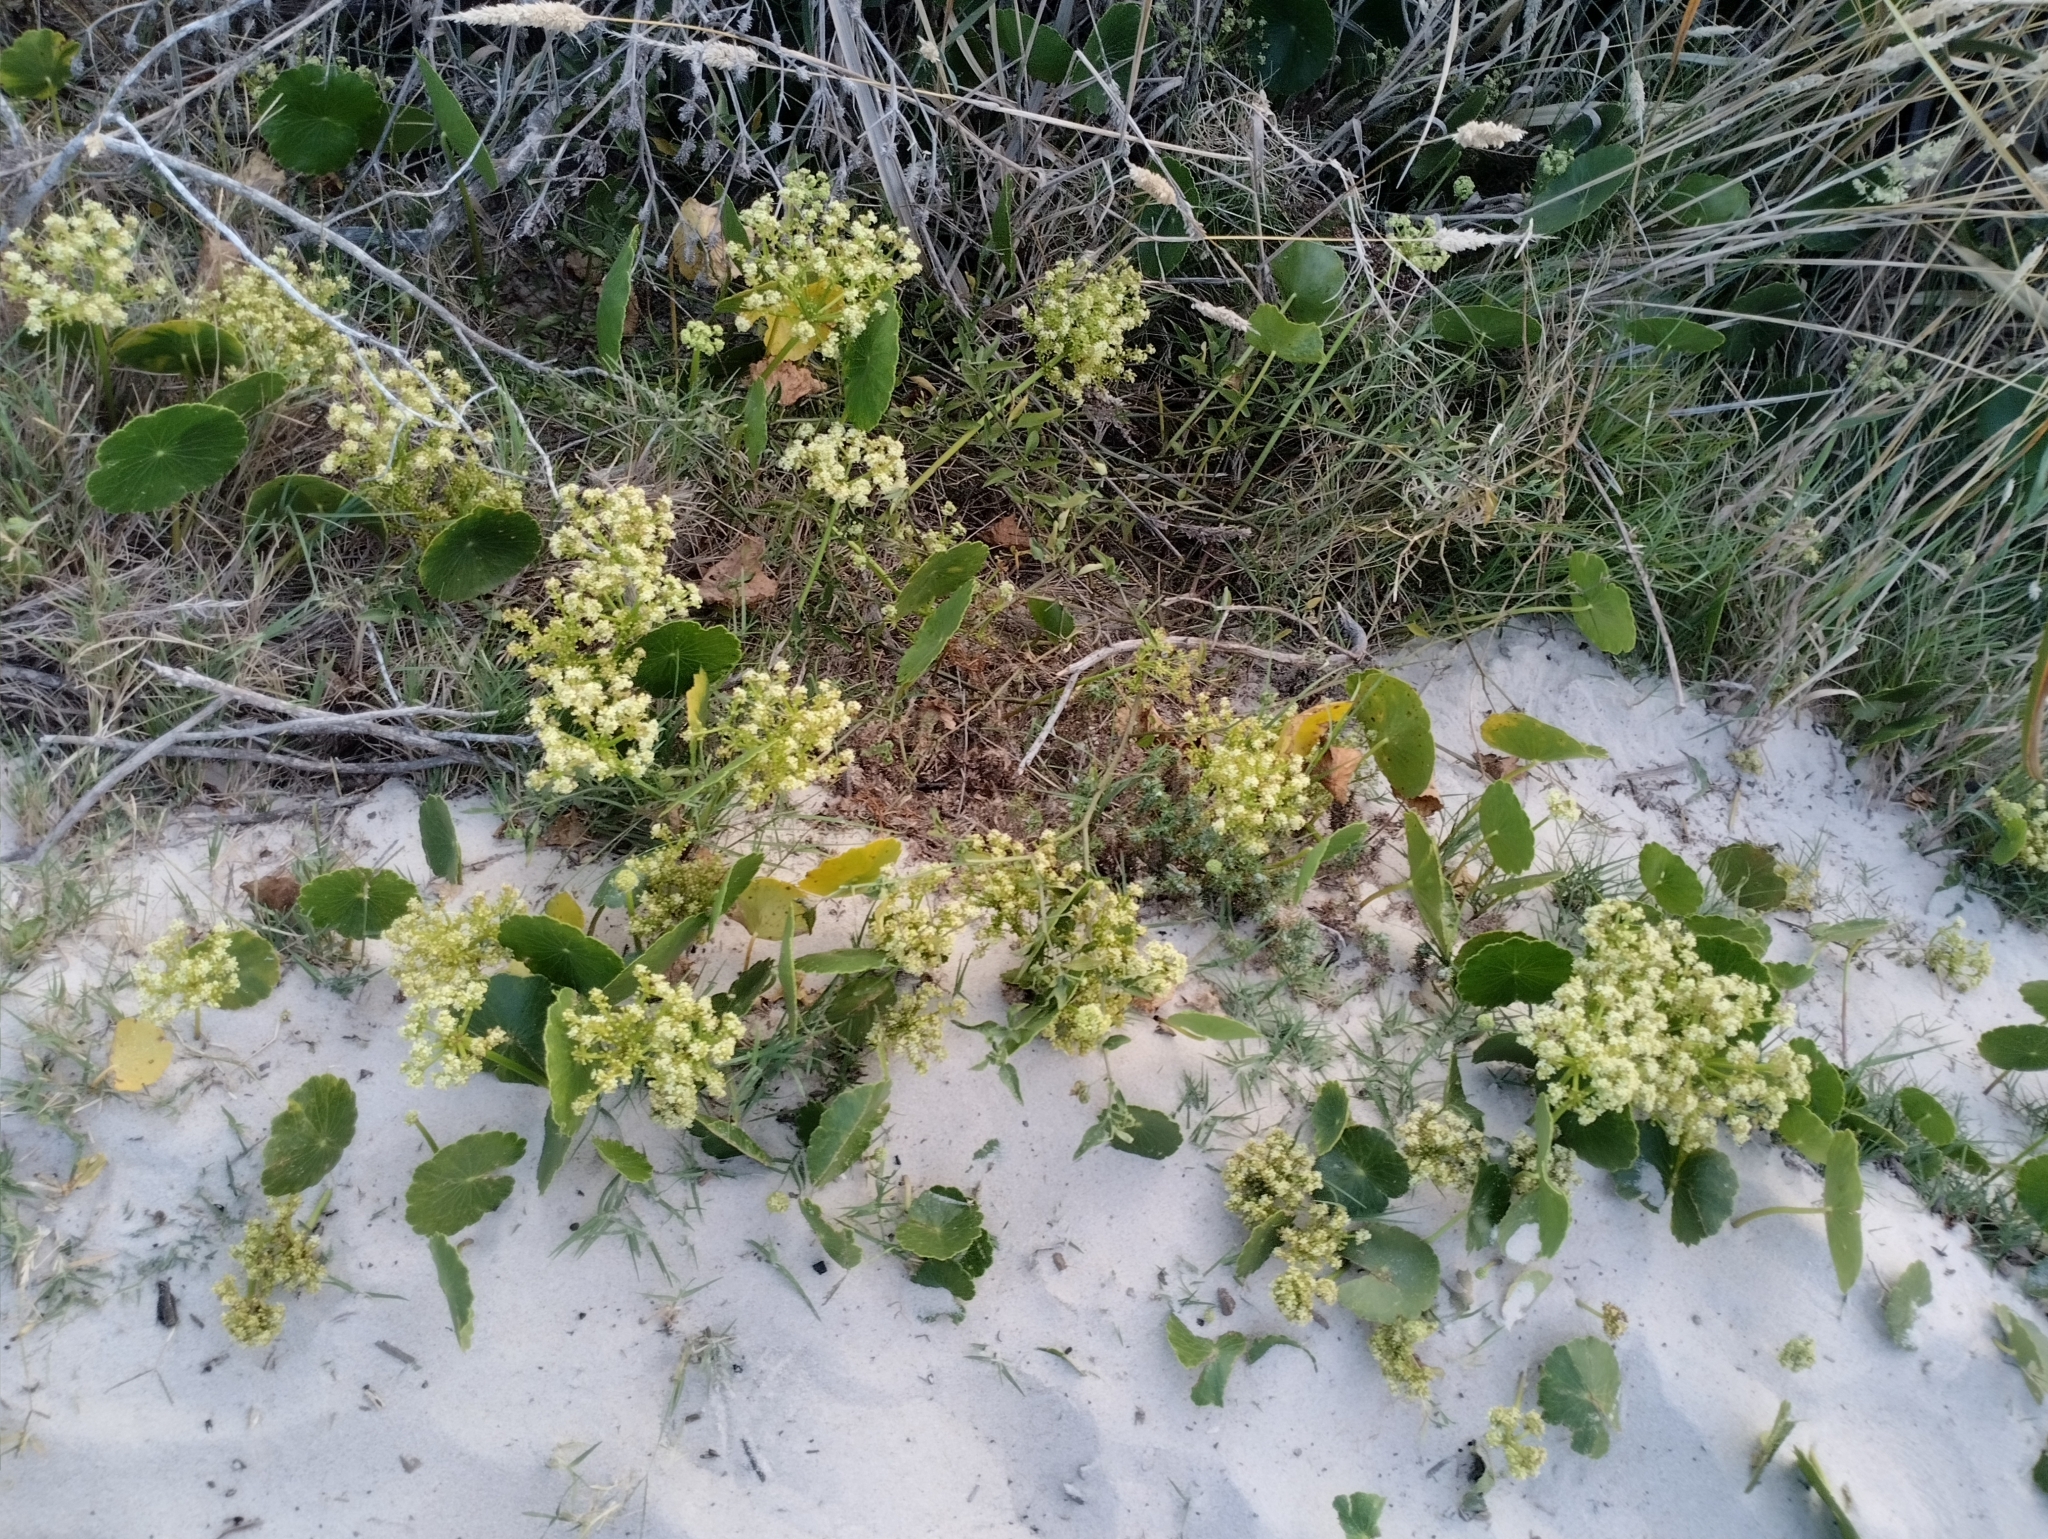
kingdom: Plantae
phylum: Tracheophyta
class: Magnoliopsida
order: Apiales
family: Araliaceae
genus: Hydrocotyle
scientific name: Hydrocotyle bonariensis
